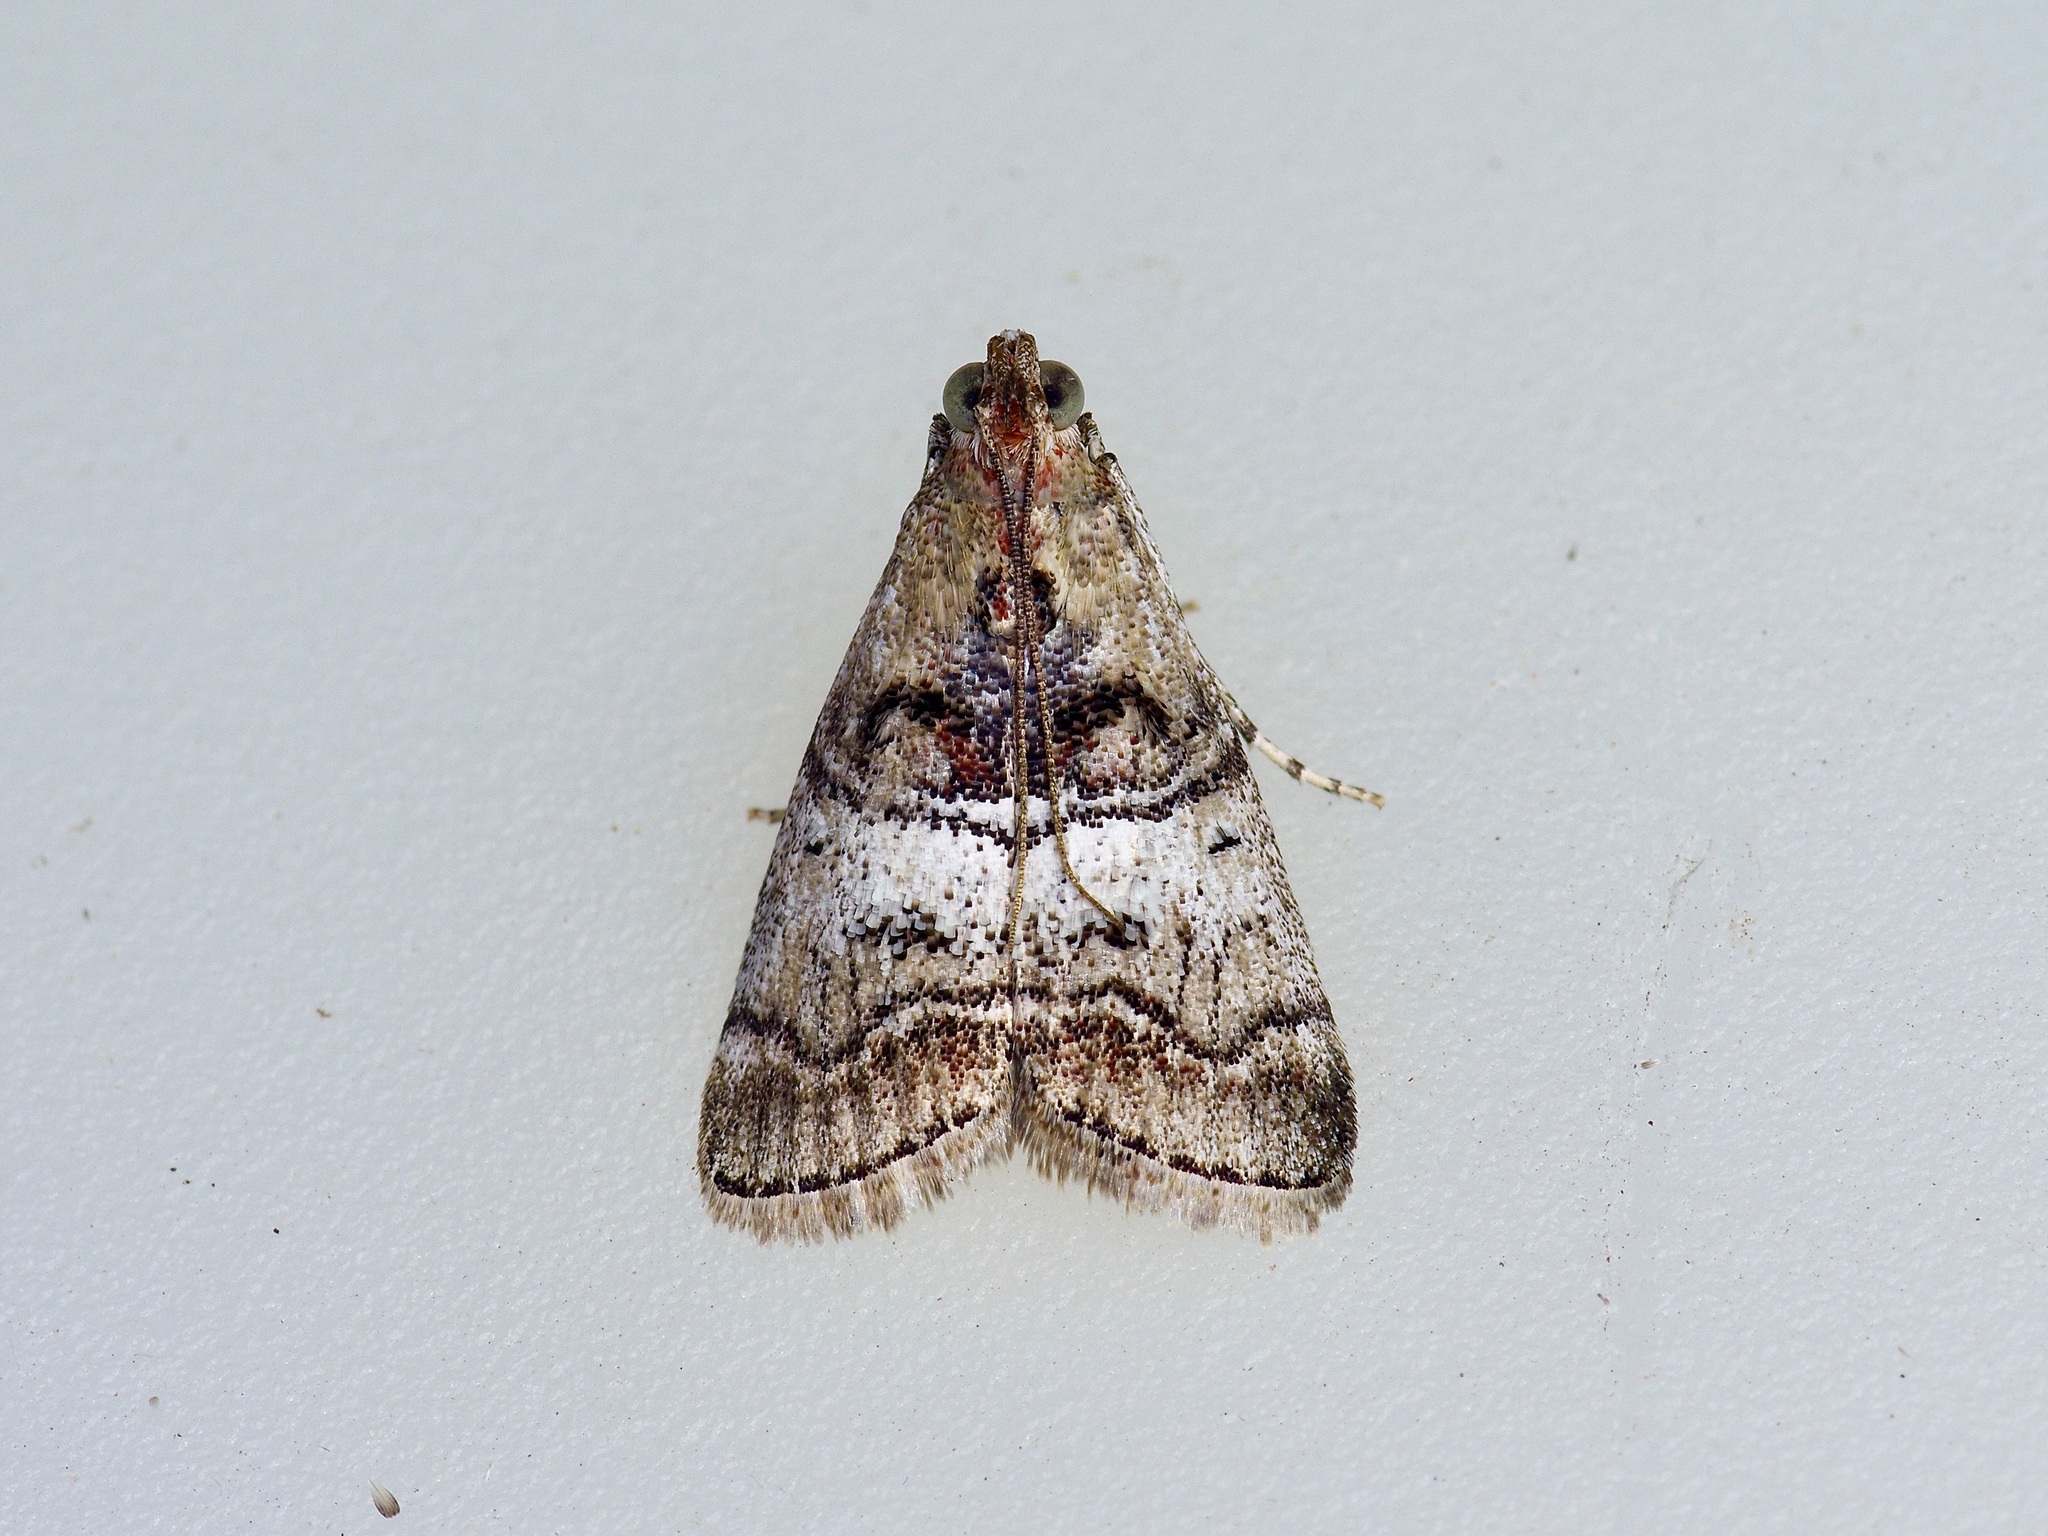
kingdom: Animalia
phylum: Arthropoda
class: Insecta
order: Lepidoptera
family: Pyralidae
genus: Pococera
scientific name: Pococera maritimalis
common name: Gray-banded pococera moth
